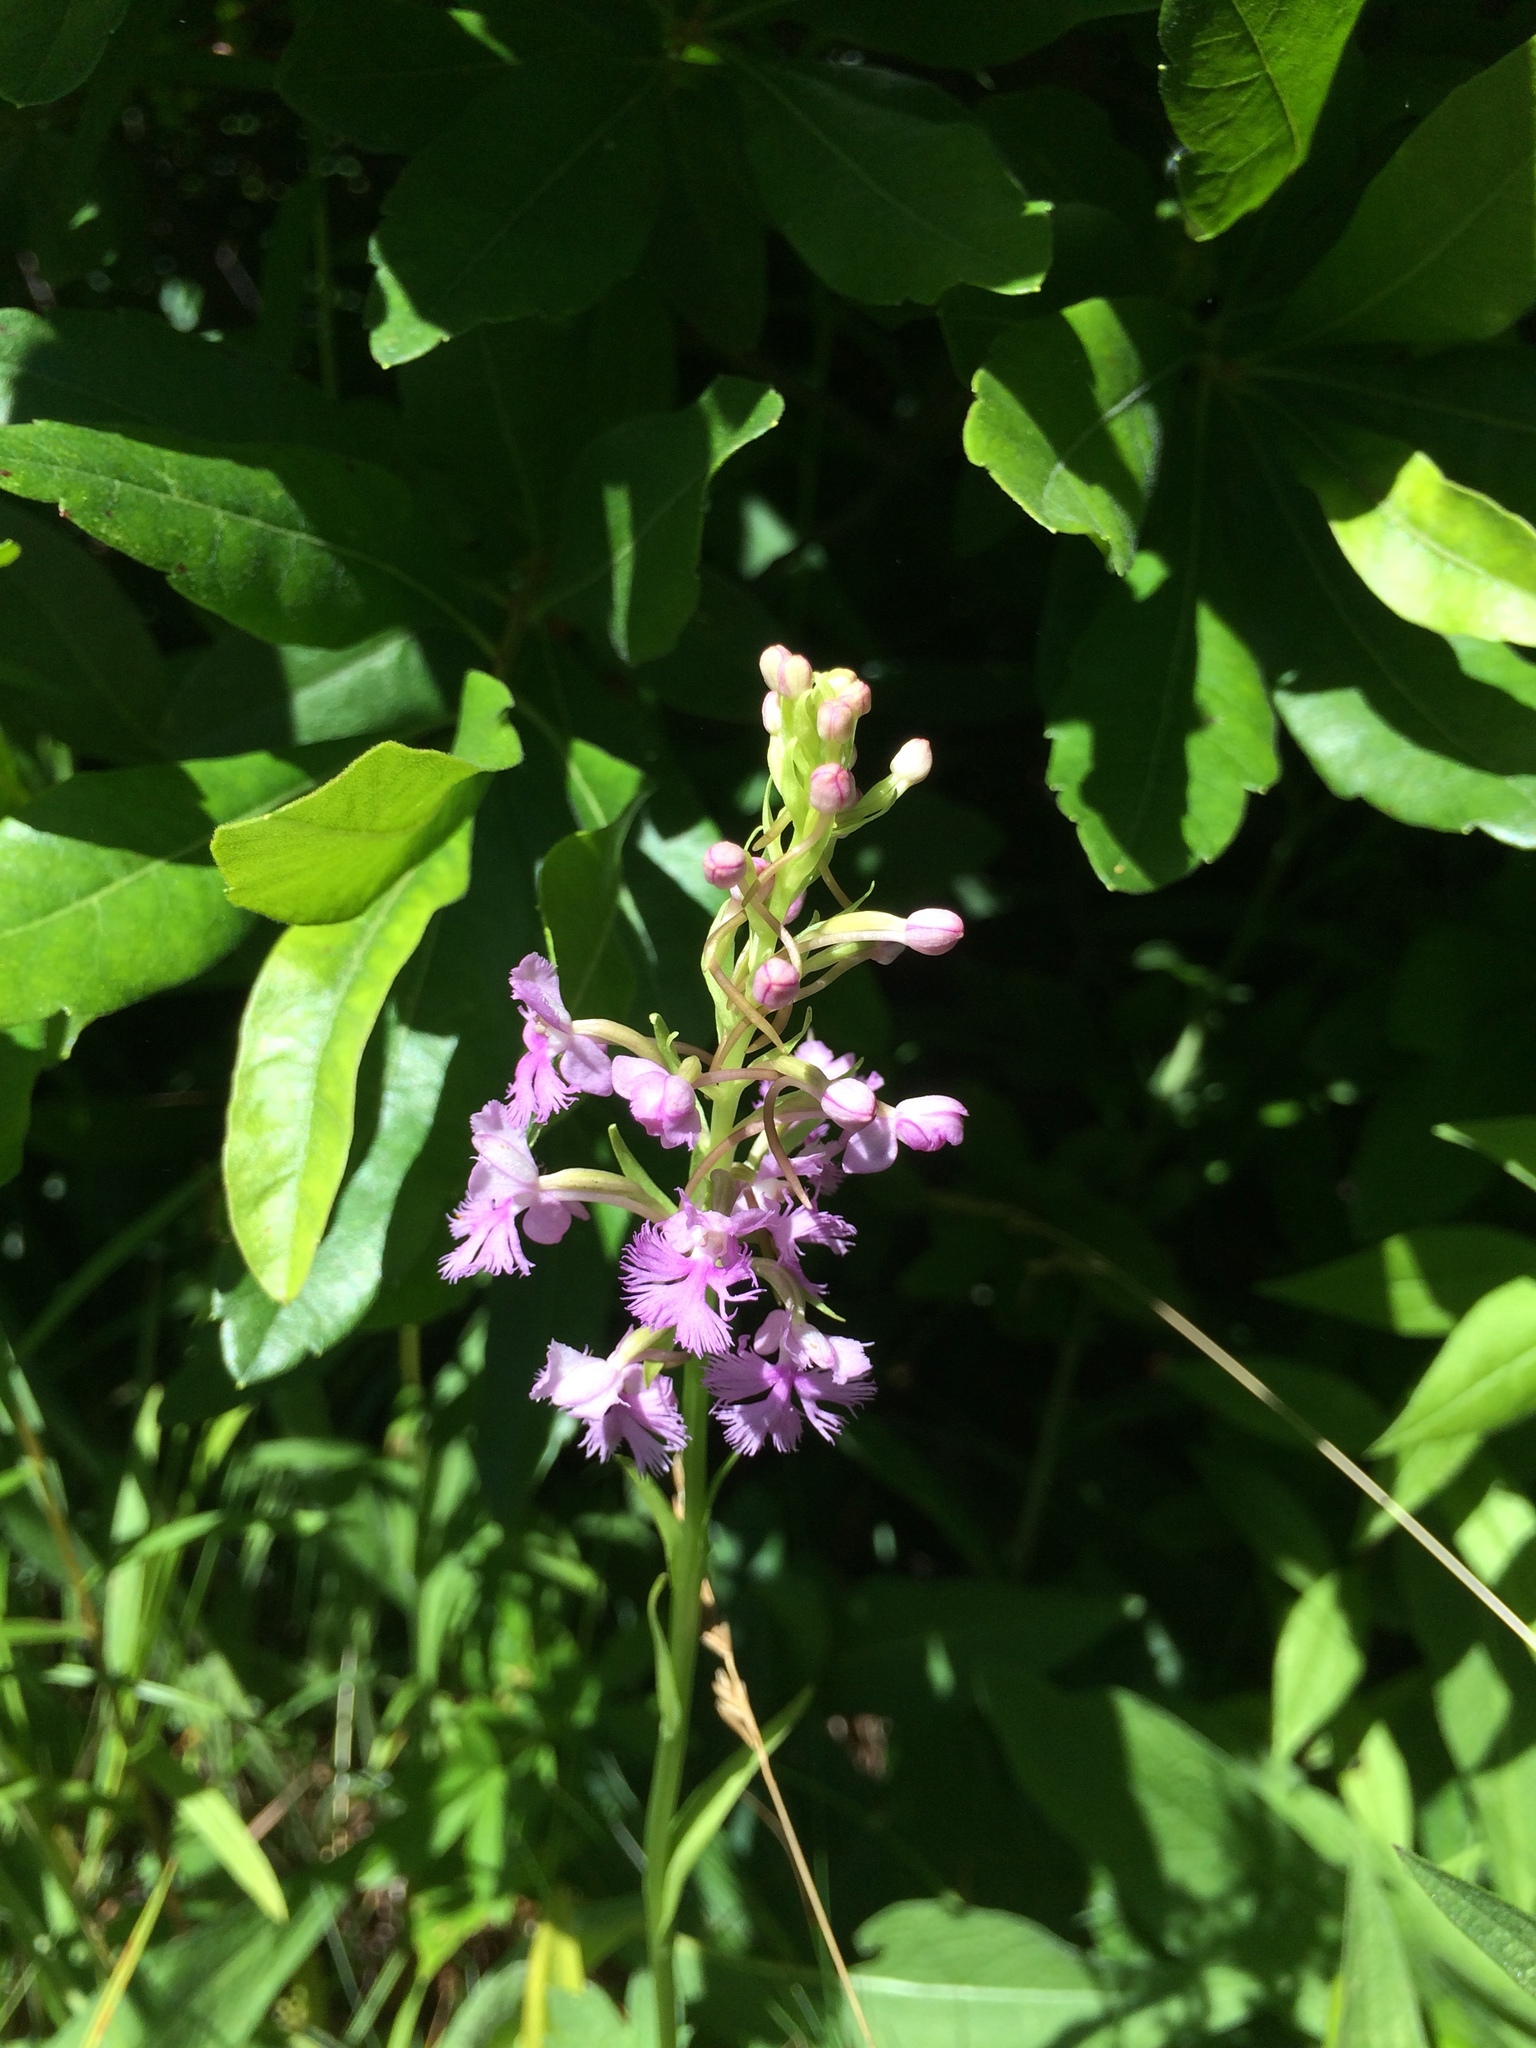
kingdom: Plantae
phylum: Tracheophyta
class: Liliopsida
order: Asparagales
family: Orchidaceae
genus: Platanthera
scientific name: Platanthera psycodes
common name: Lesser purple fringed orchid
